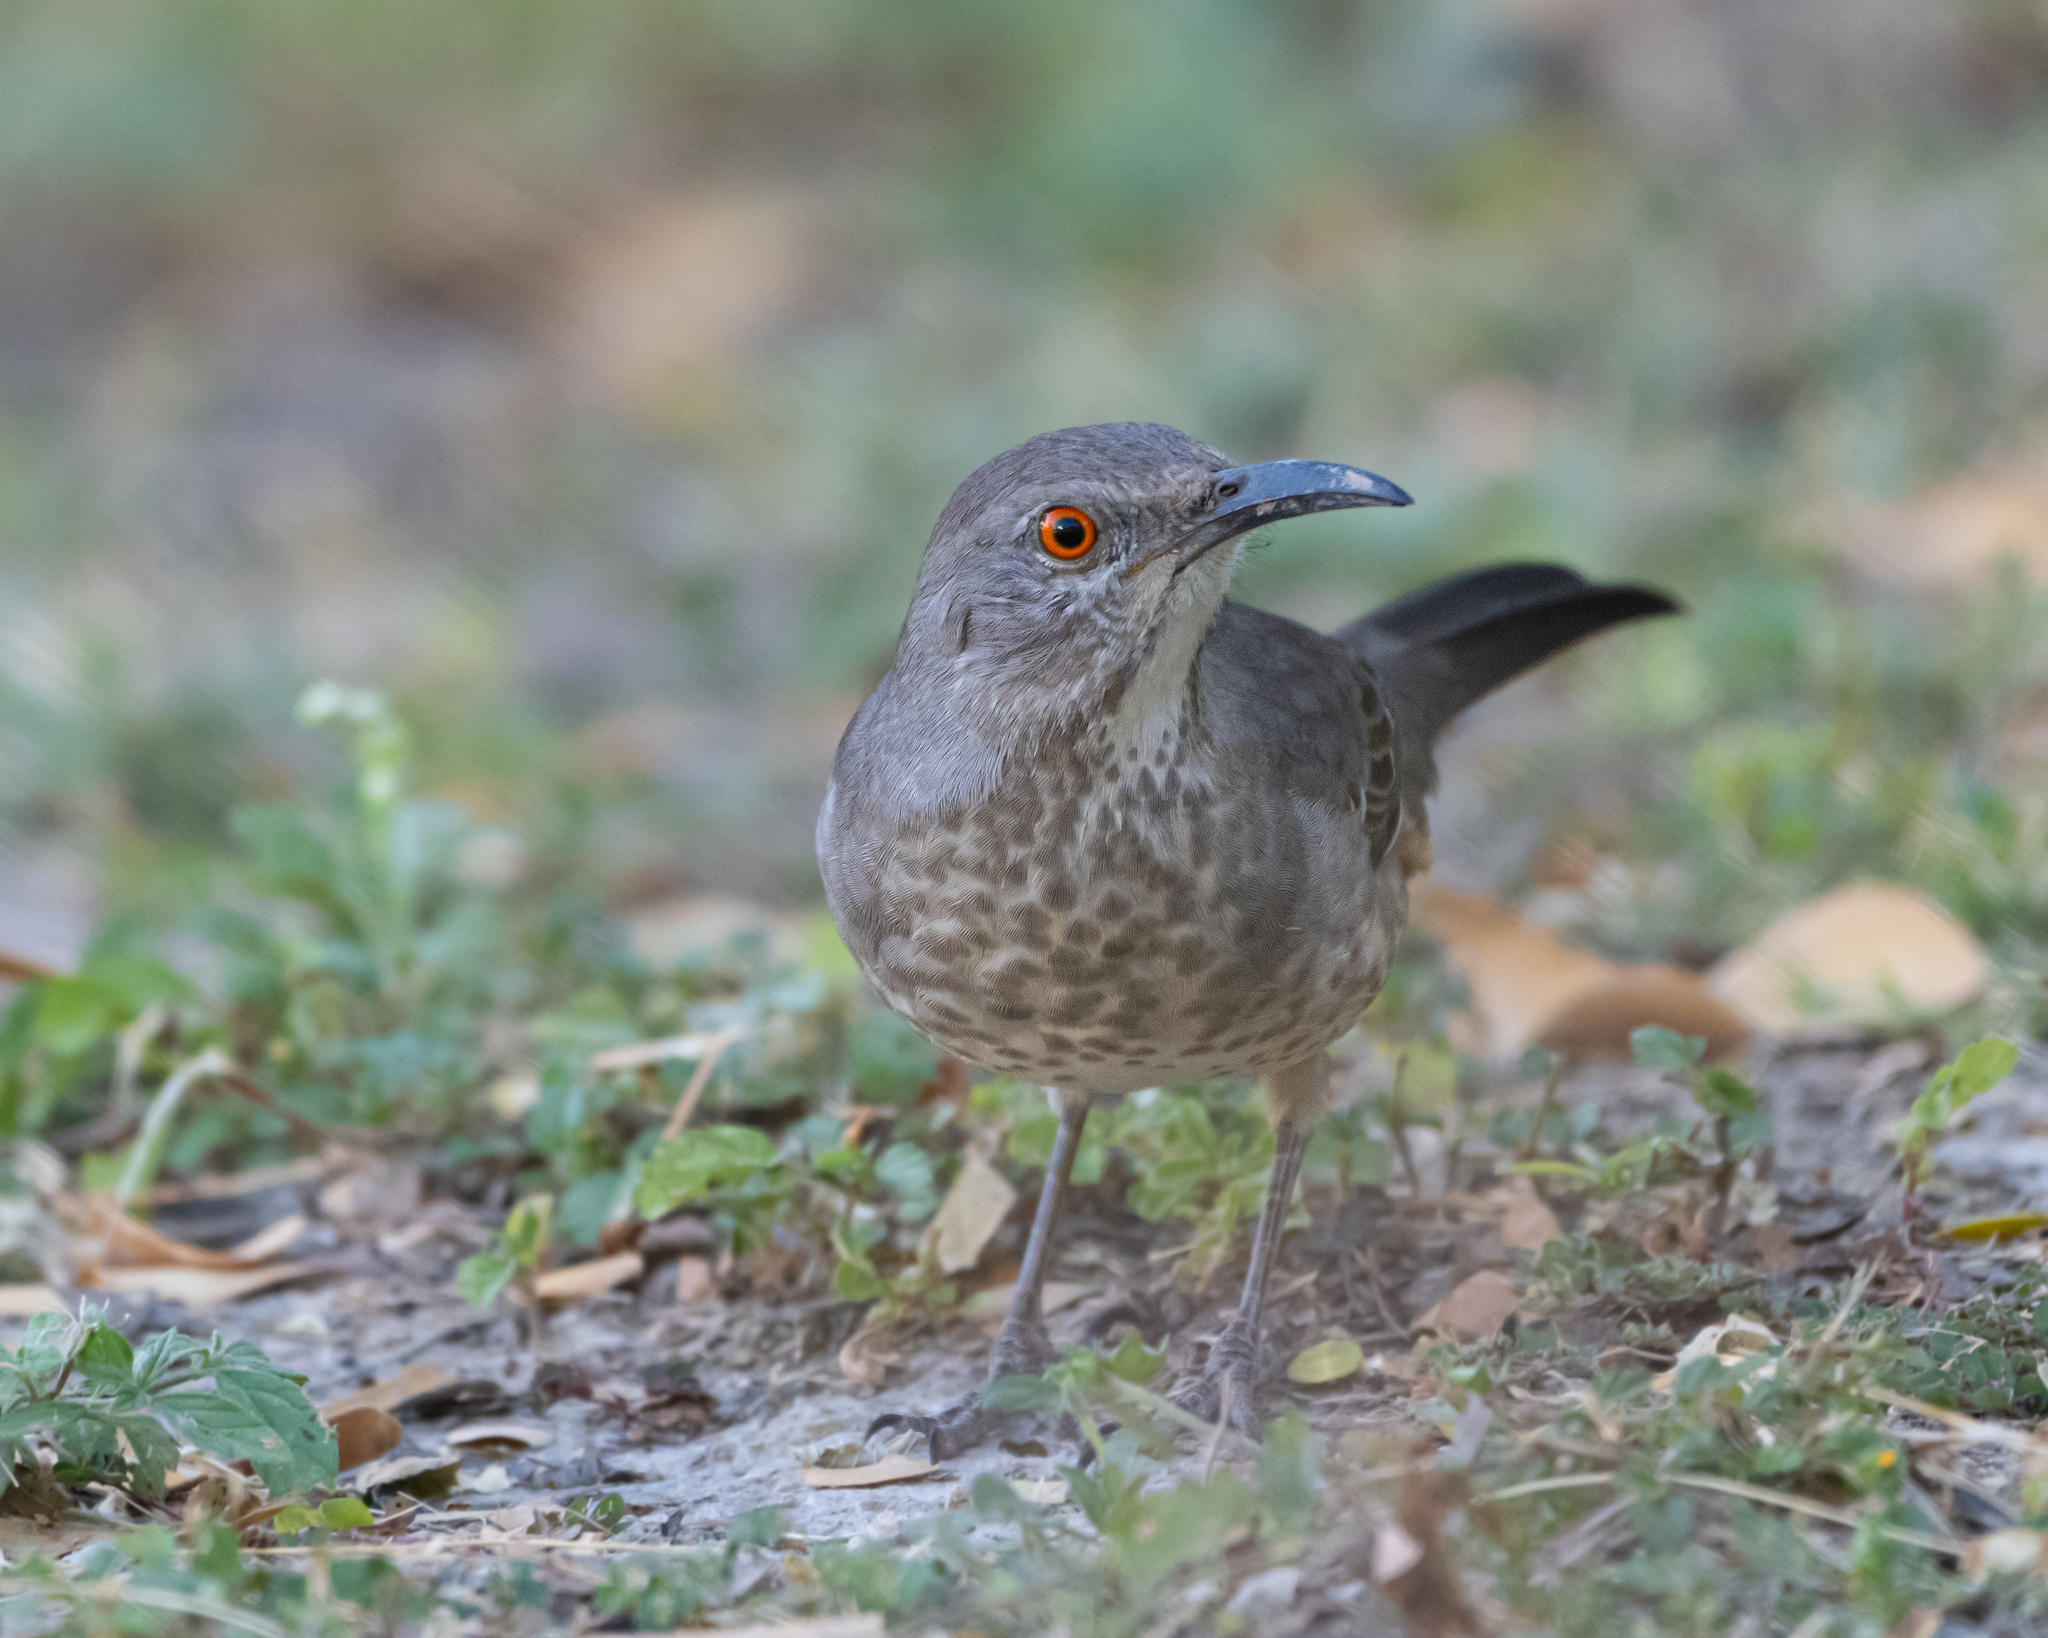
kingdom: Animalia
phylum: Chordata
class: Aves
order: Passeriformes
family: Mimidae
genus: Toxostoma
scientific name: Toxostoma curvirostre
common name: Curve-billed thrasher
